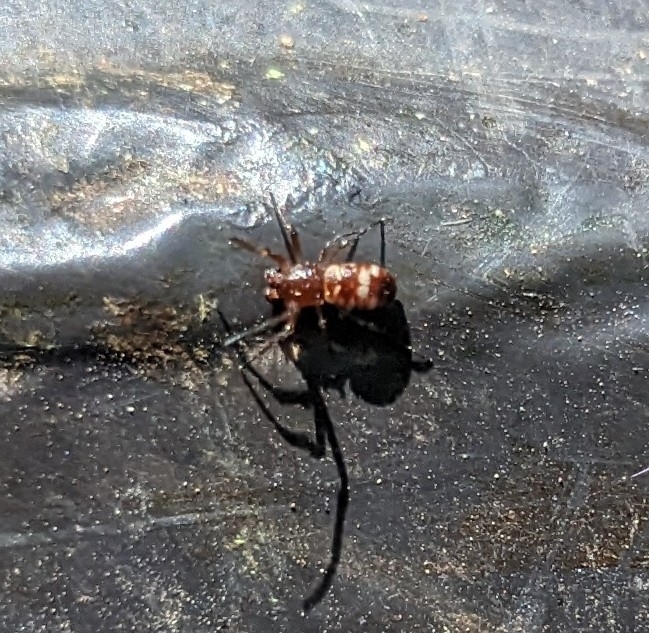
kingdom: Animalia
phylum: Arthropoda
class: Arachnida
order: Araneae
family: Araneidae
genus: Micrathena
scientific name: Micrathena mitrata
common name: Orb weavers
